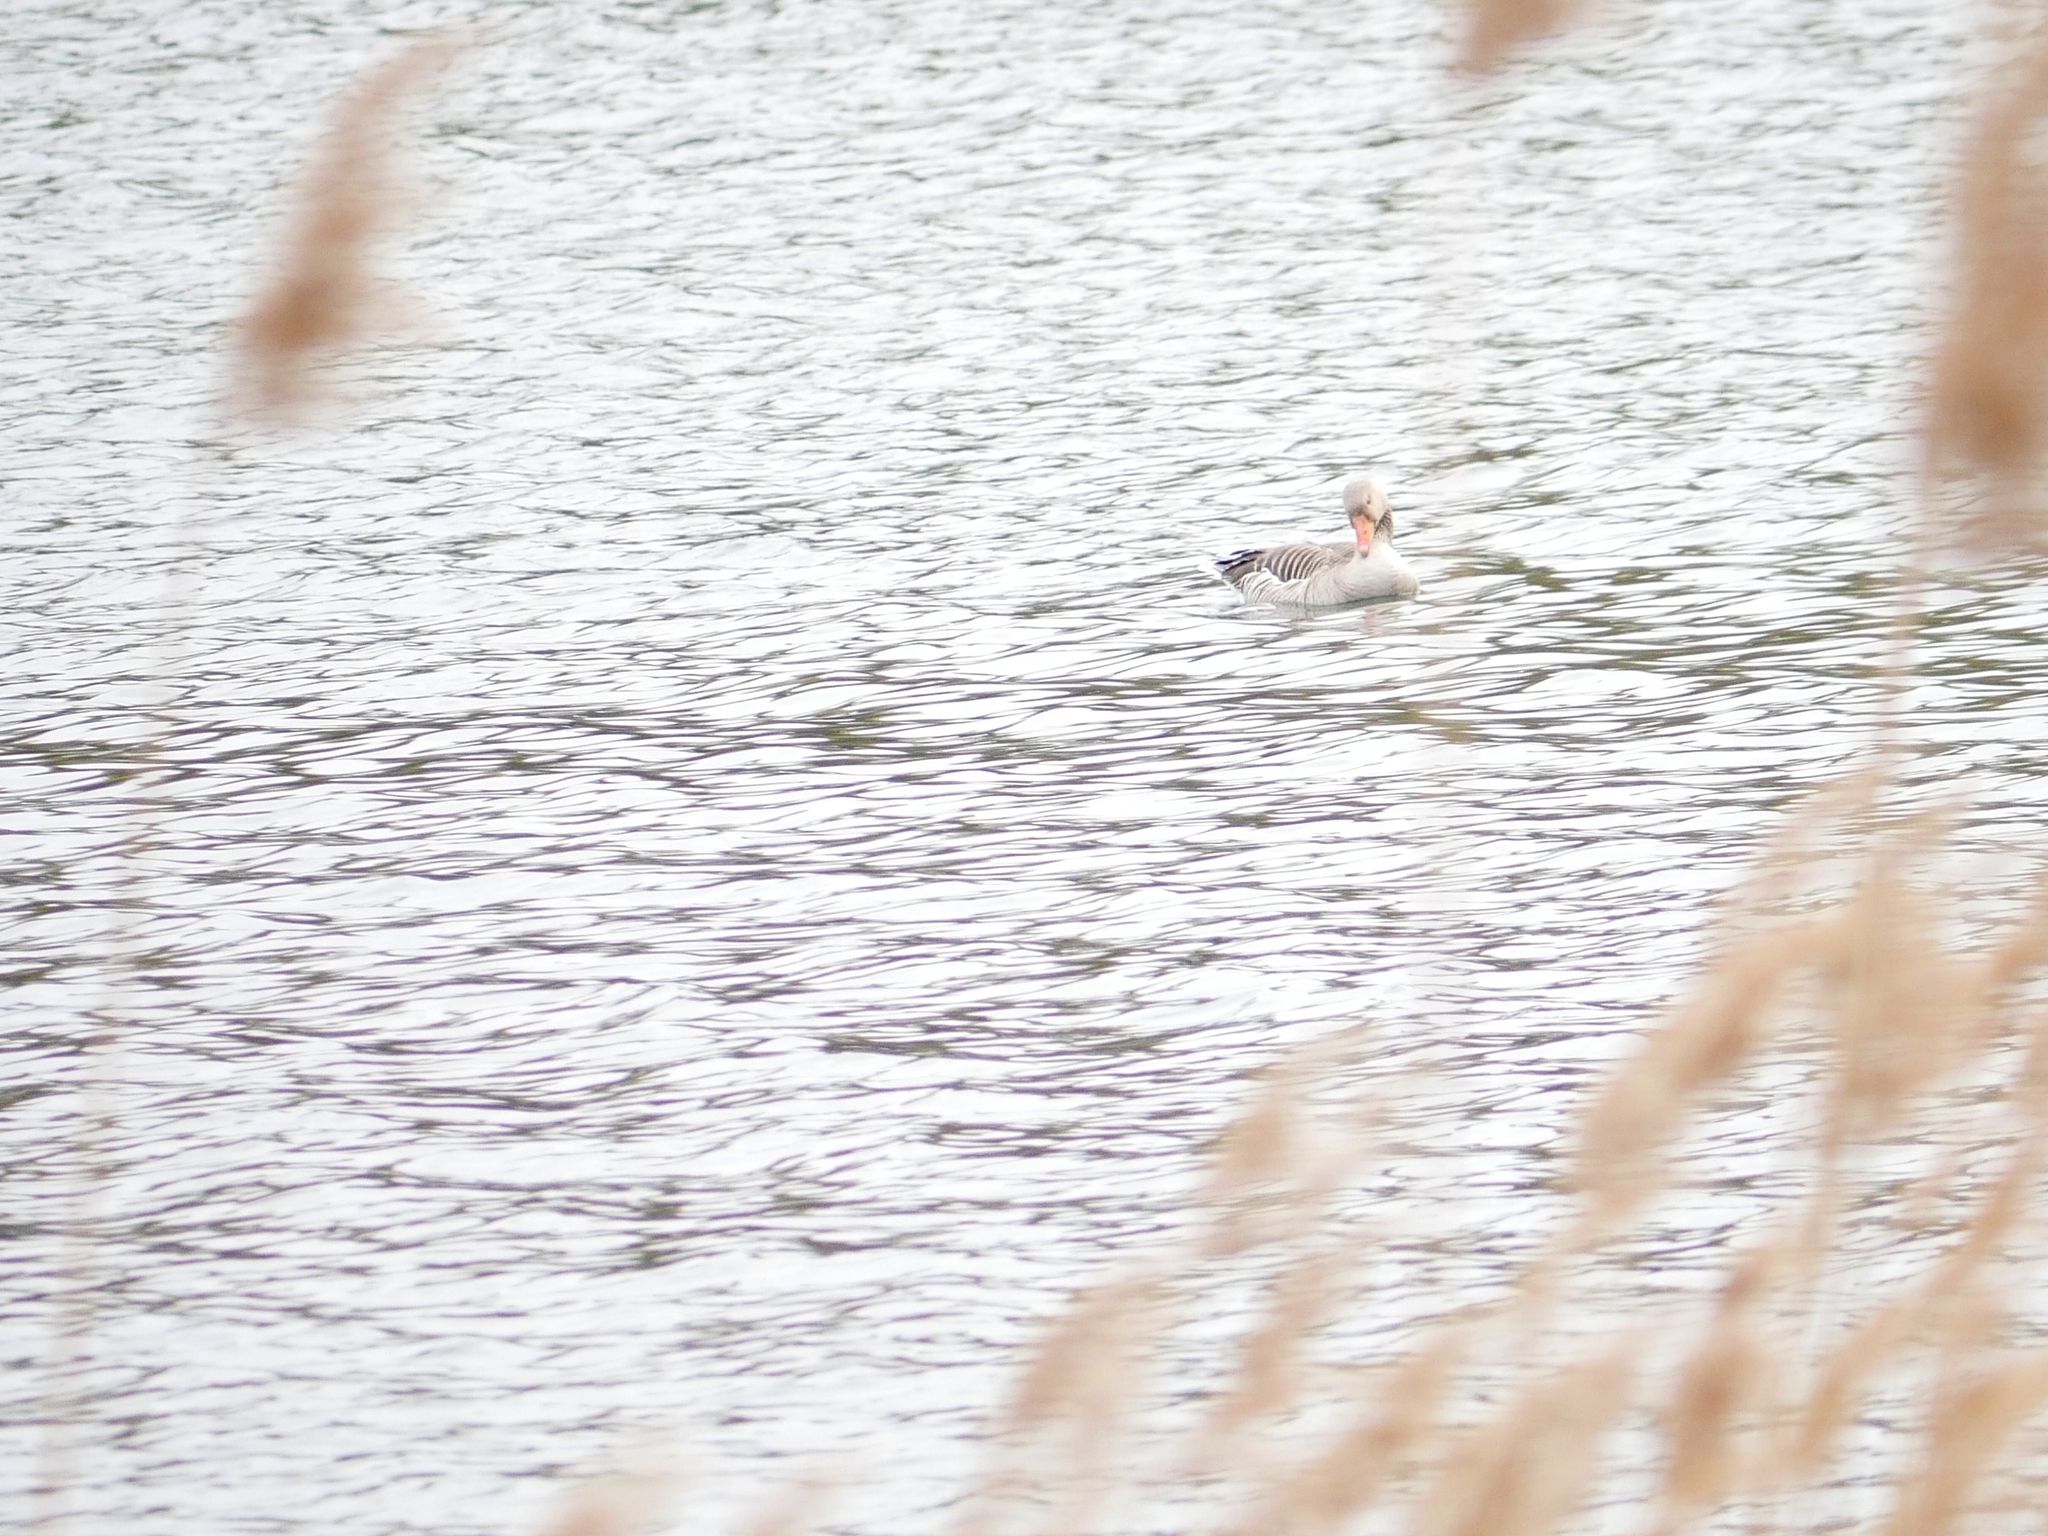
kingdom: Animalia
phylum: Chordata
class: Aves
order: Anseriformes
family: Anatidae
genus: Anser
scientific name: Anser anser
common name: Greylag goose
